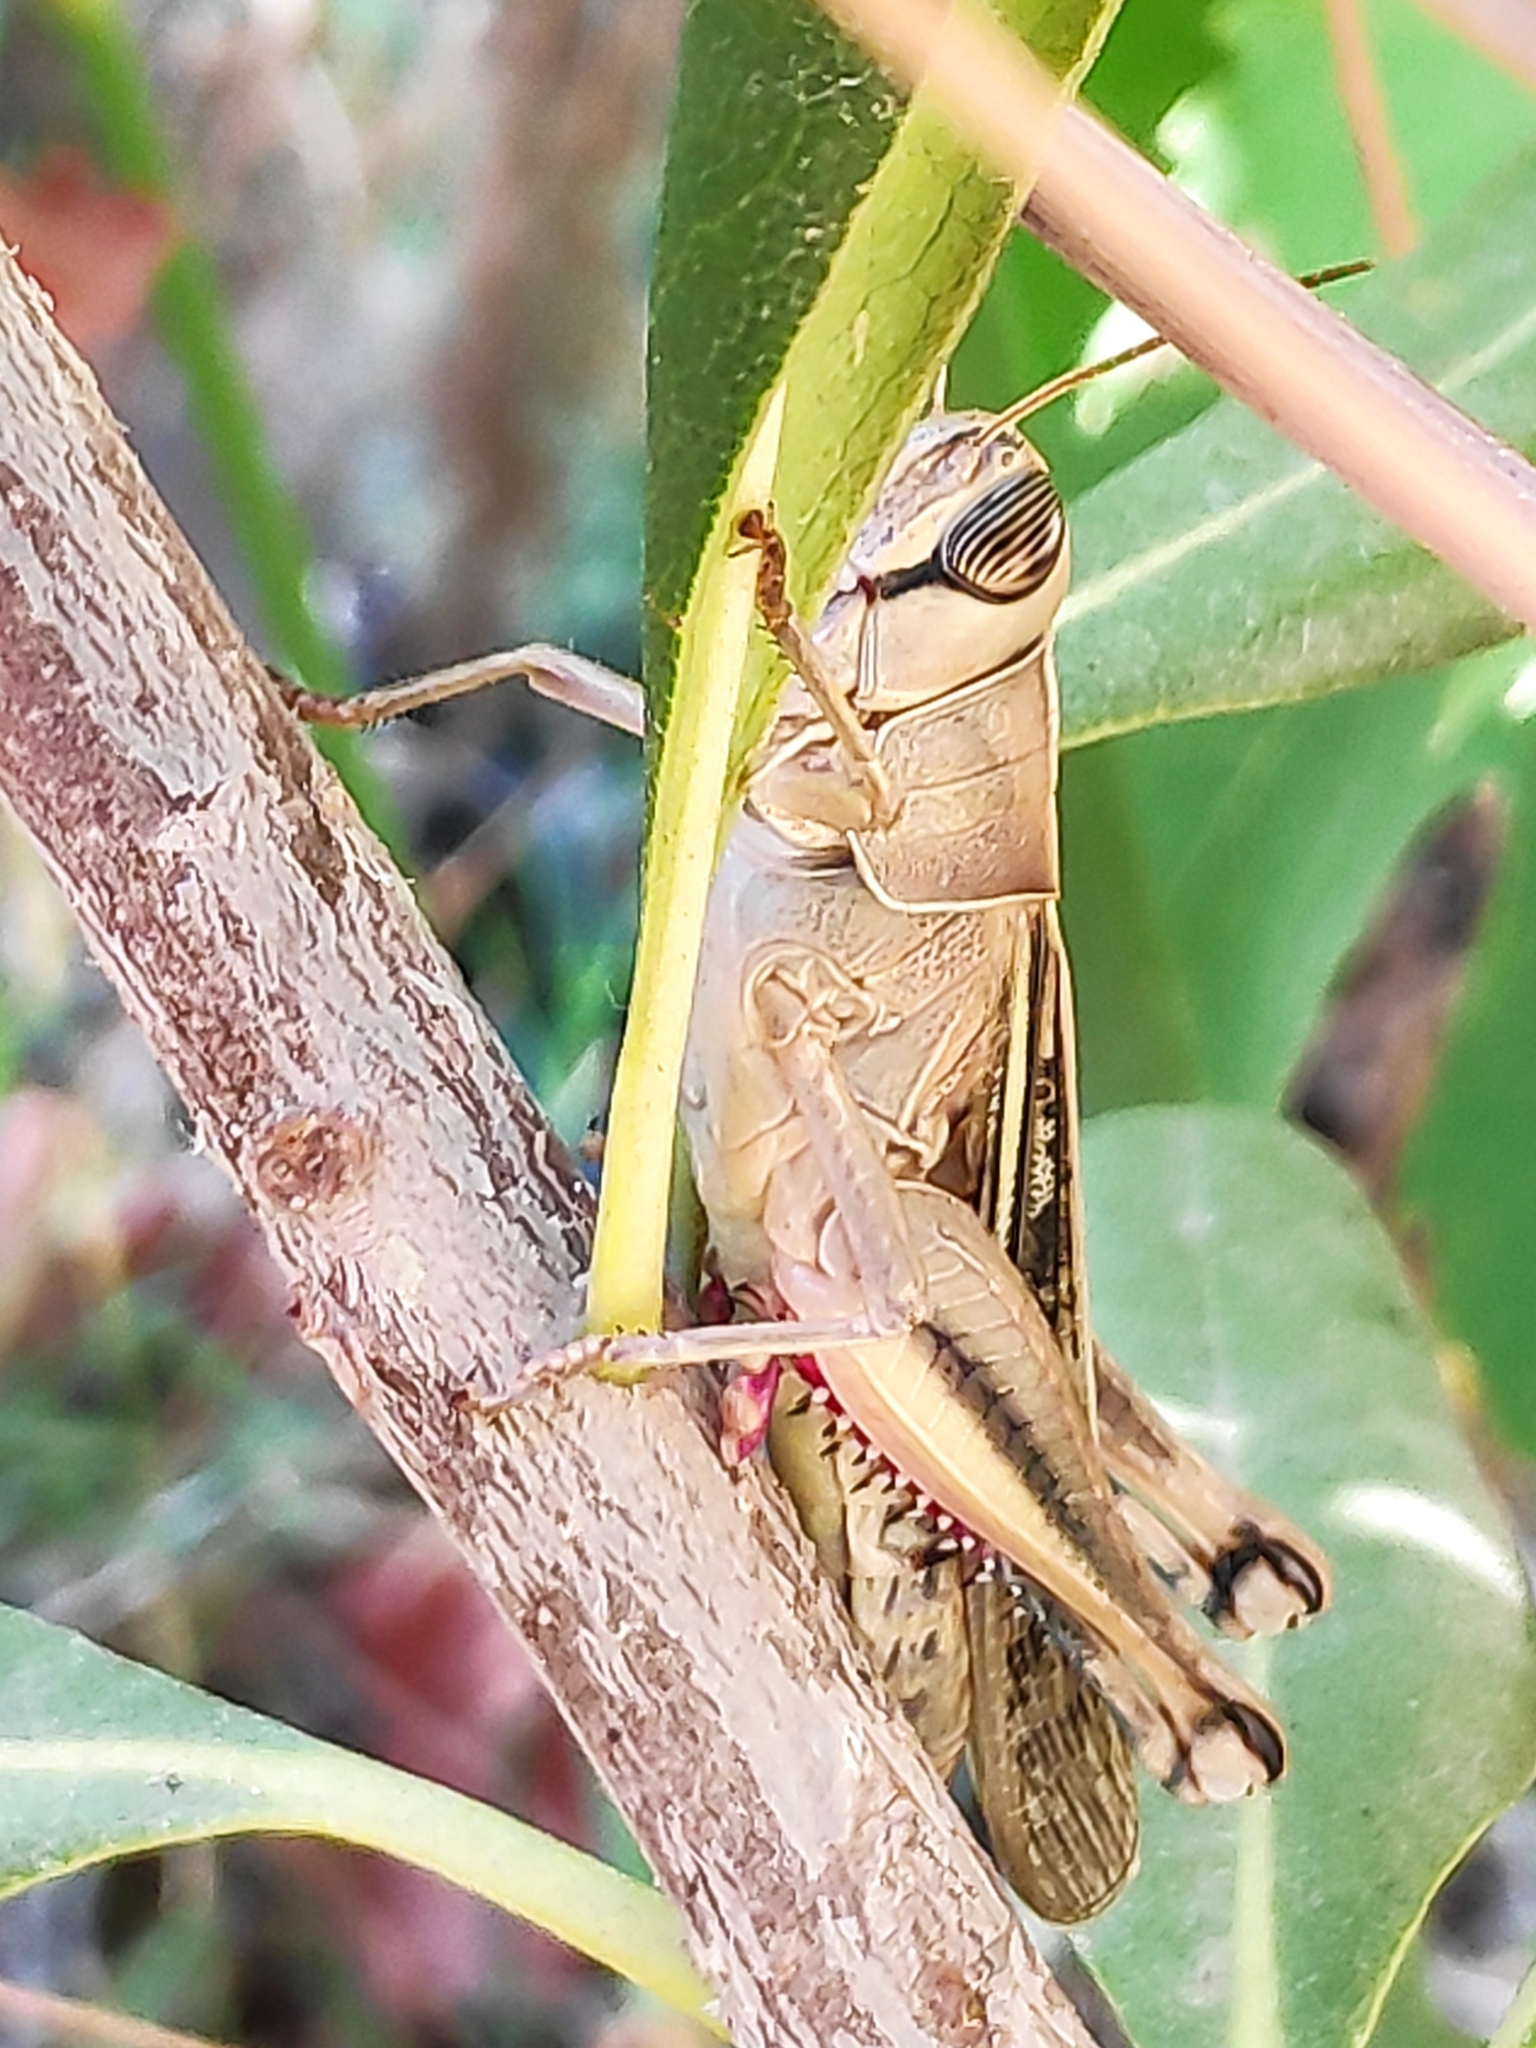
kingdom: Animalia
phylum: Arthropoda
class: Insecta
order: Orthoptera
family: Acrididae
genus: Eyprepocnemis
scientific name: Eyprepocnemis plorans
